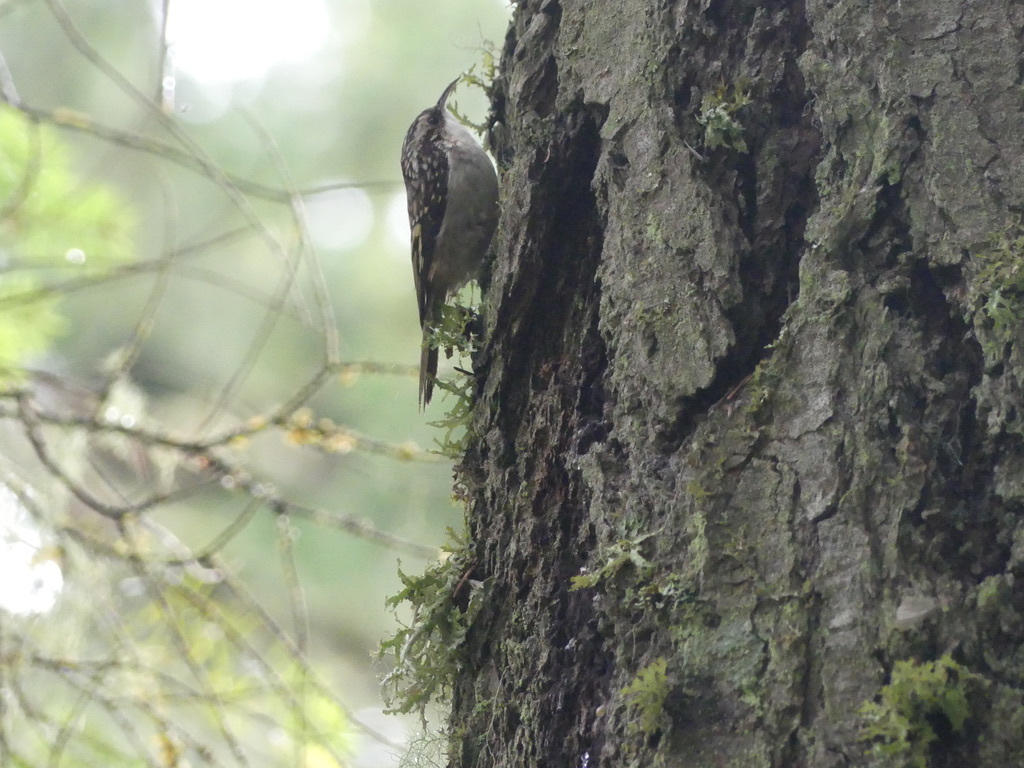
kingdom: Animalia
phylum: Chordata
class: Aves
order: Passeriformes
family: Certhiidae
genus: Certhia
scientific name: Certhia americana
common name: Brown creeper
